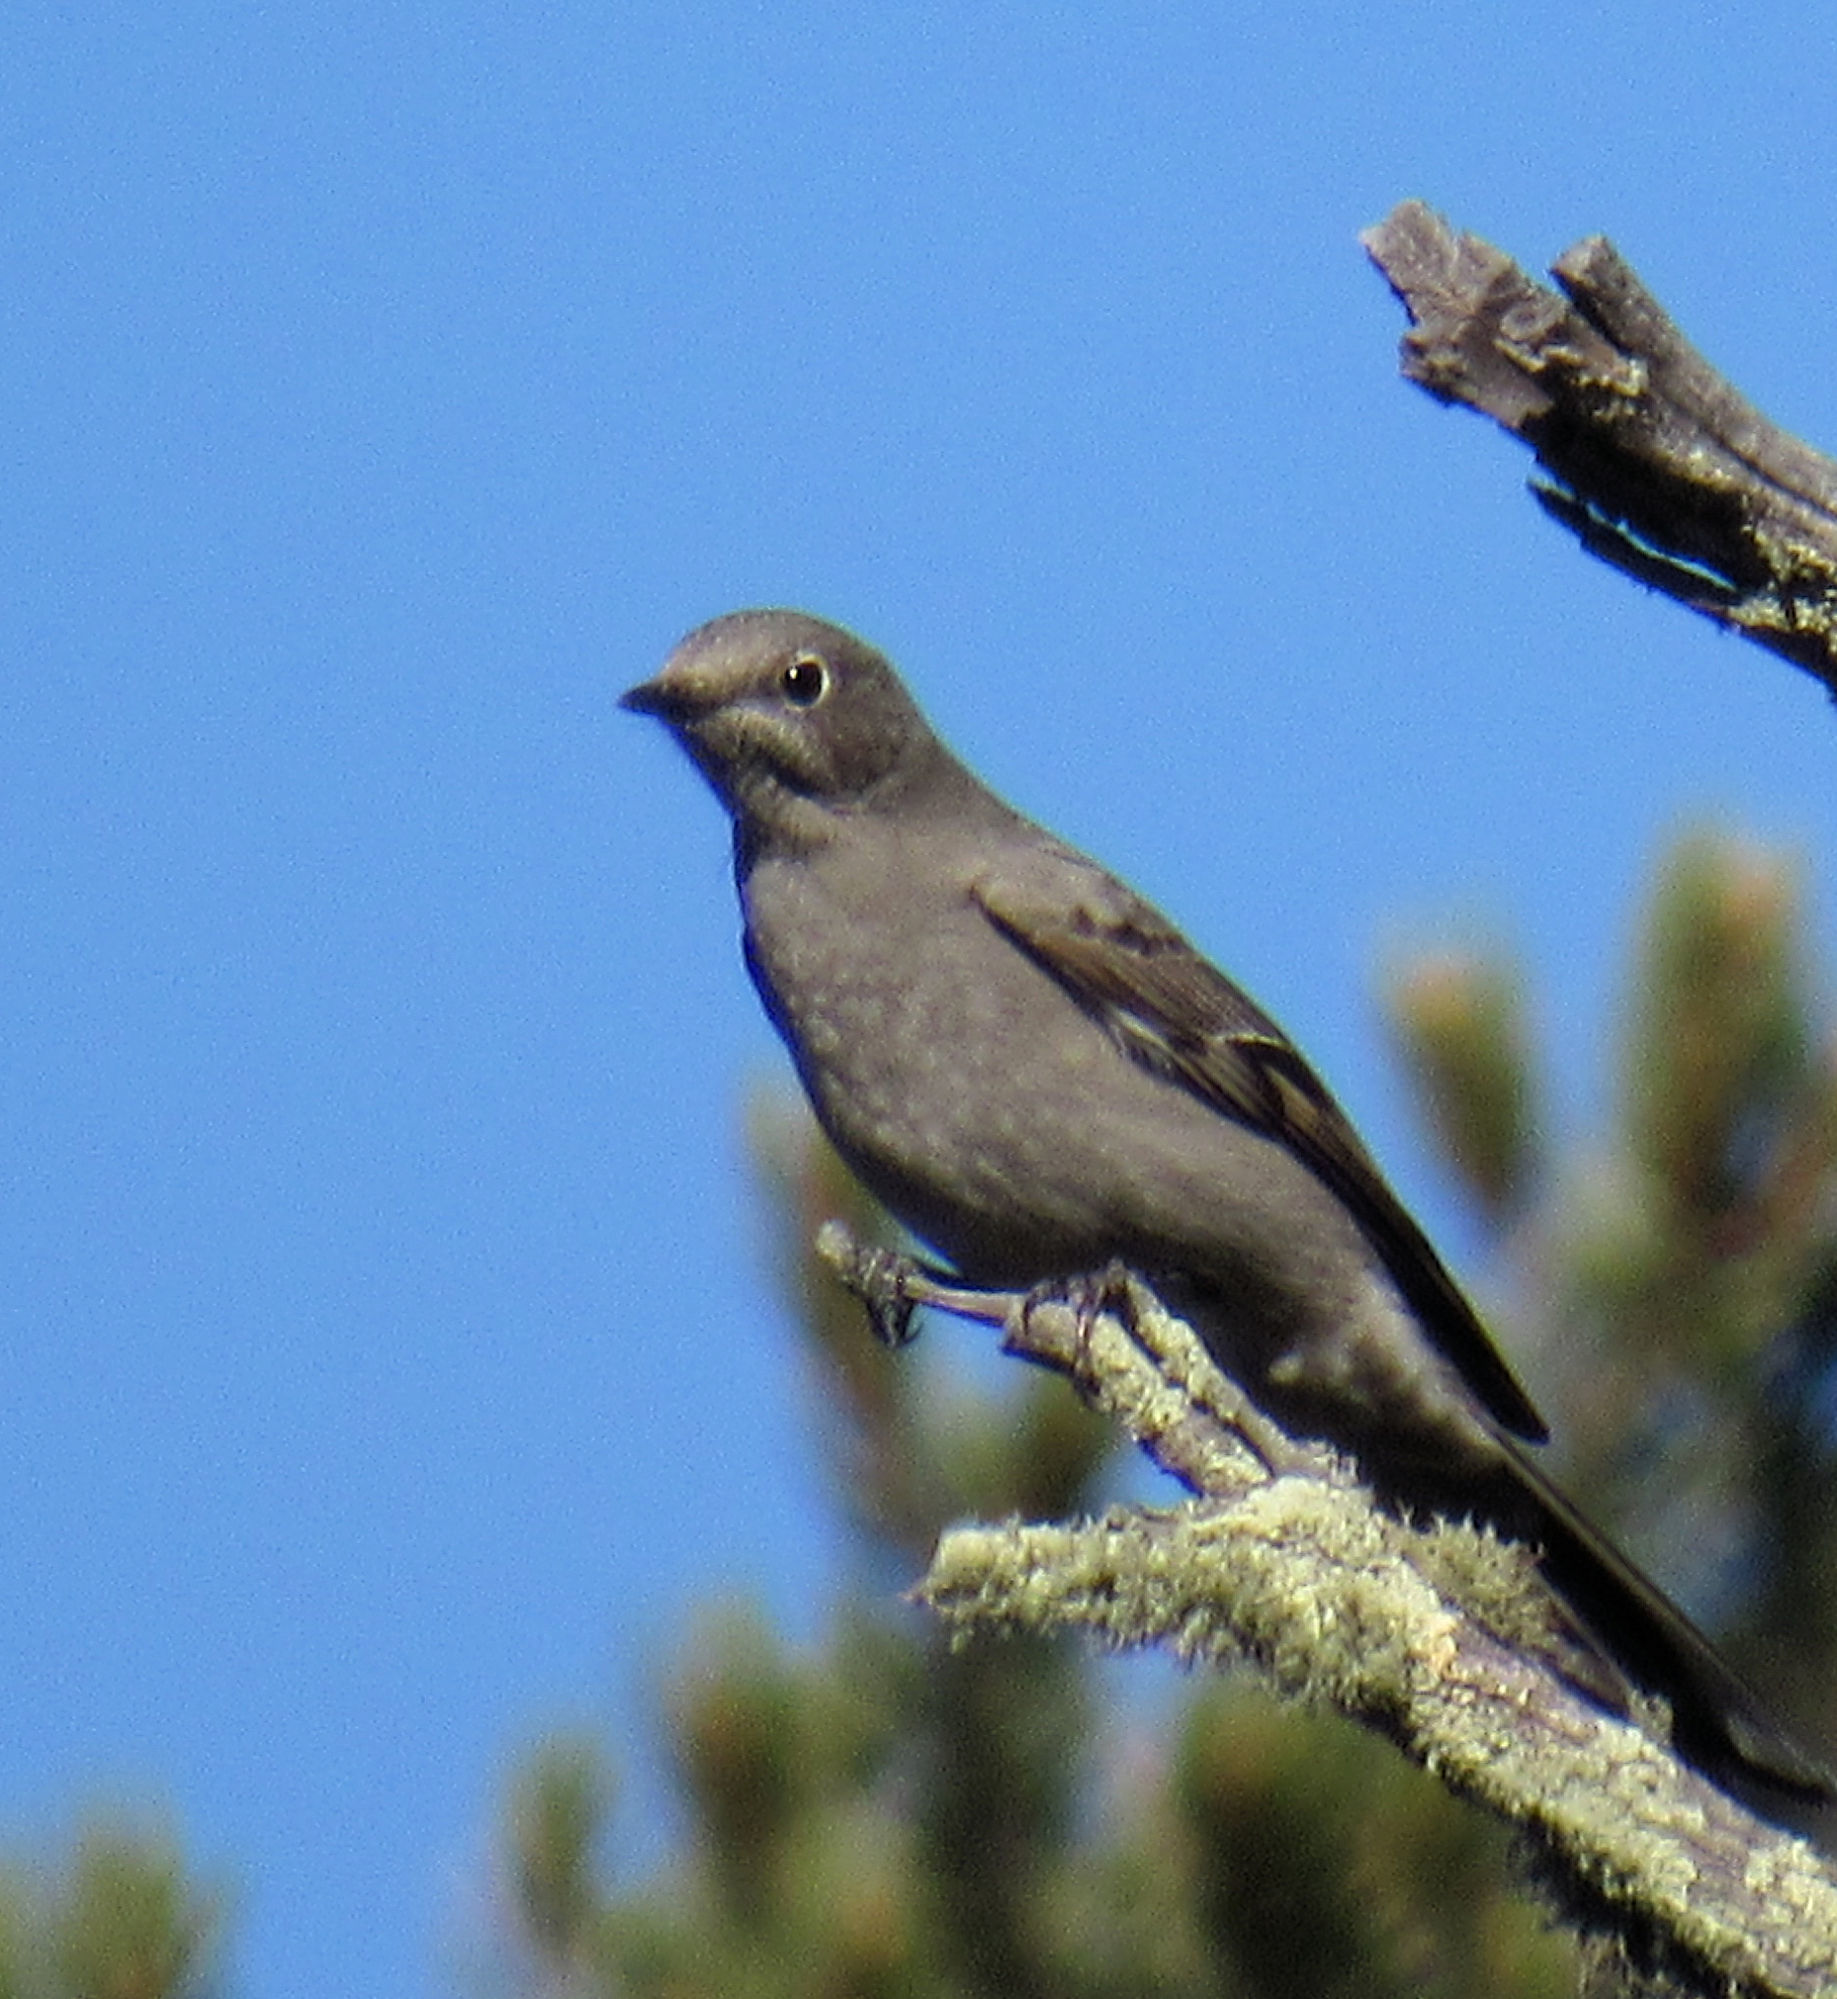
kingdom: Animalia
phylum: Chordata
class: Aves
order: Passeriformes
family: Turdidae
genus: Myadestes
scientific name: Myadestes townsendi
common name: Townsend's solitaire
